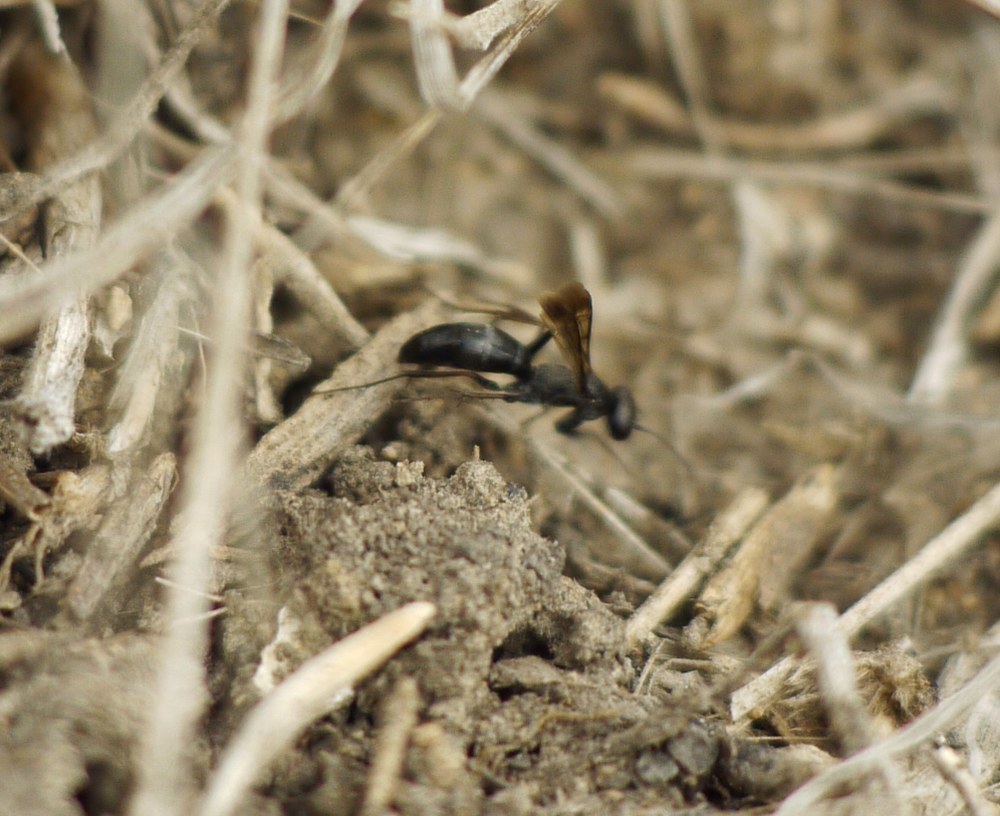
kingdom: Animalia
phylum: Arthropoda
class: Insecta
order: Hymenoptera
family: Pompilidae
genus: Microphadnus
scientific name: Microphadnus pumilus
